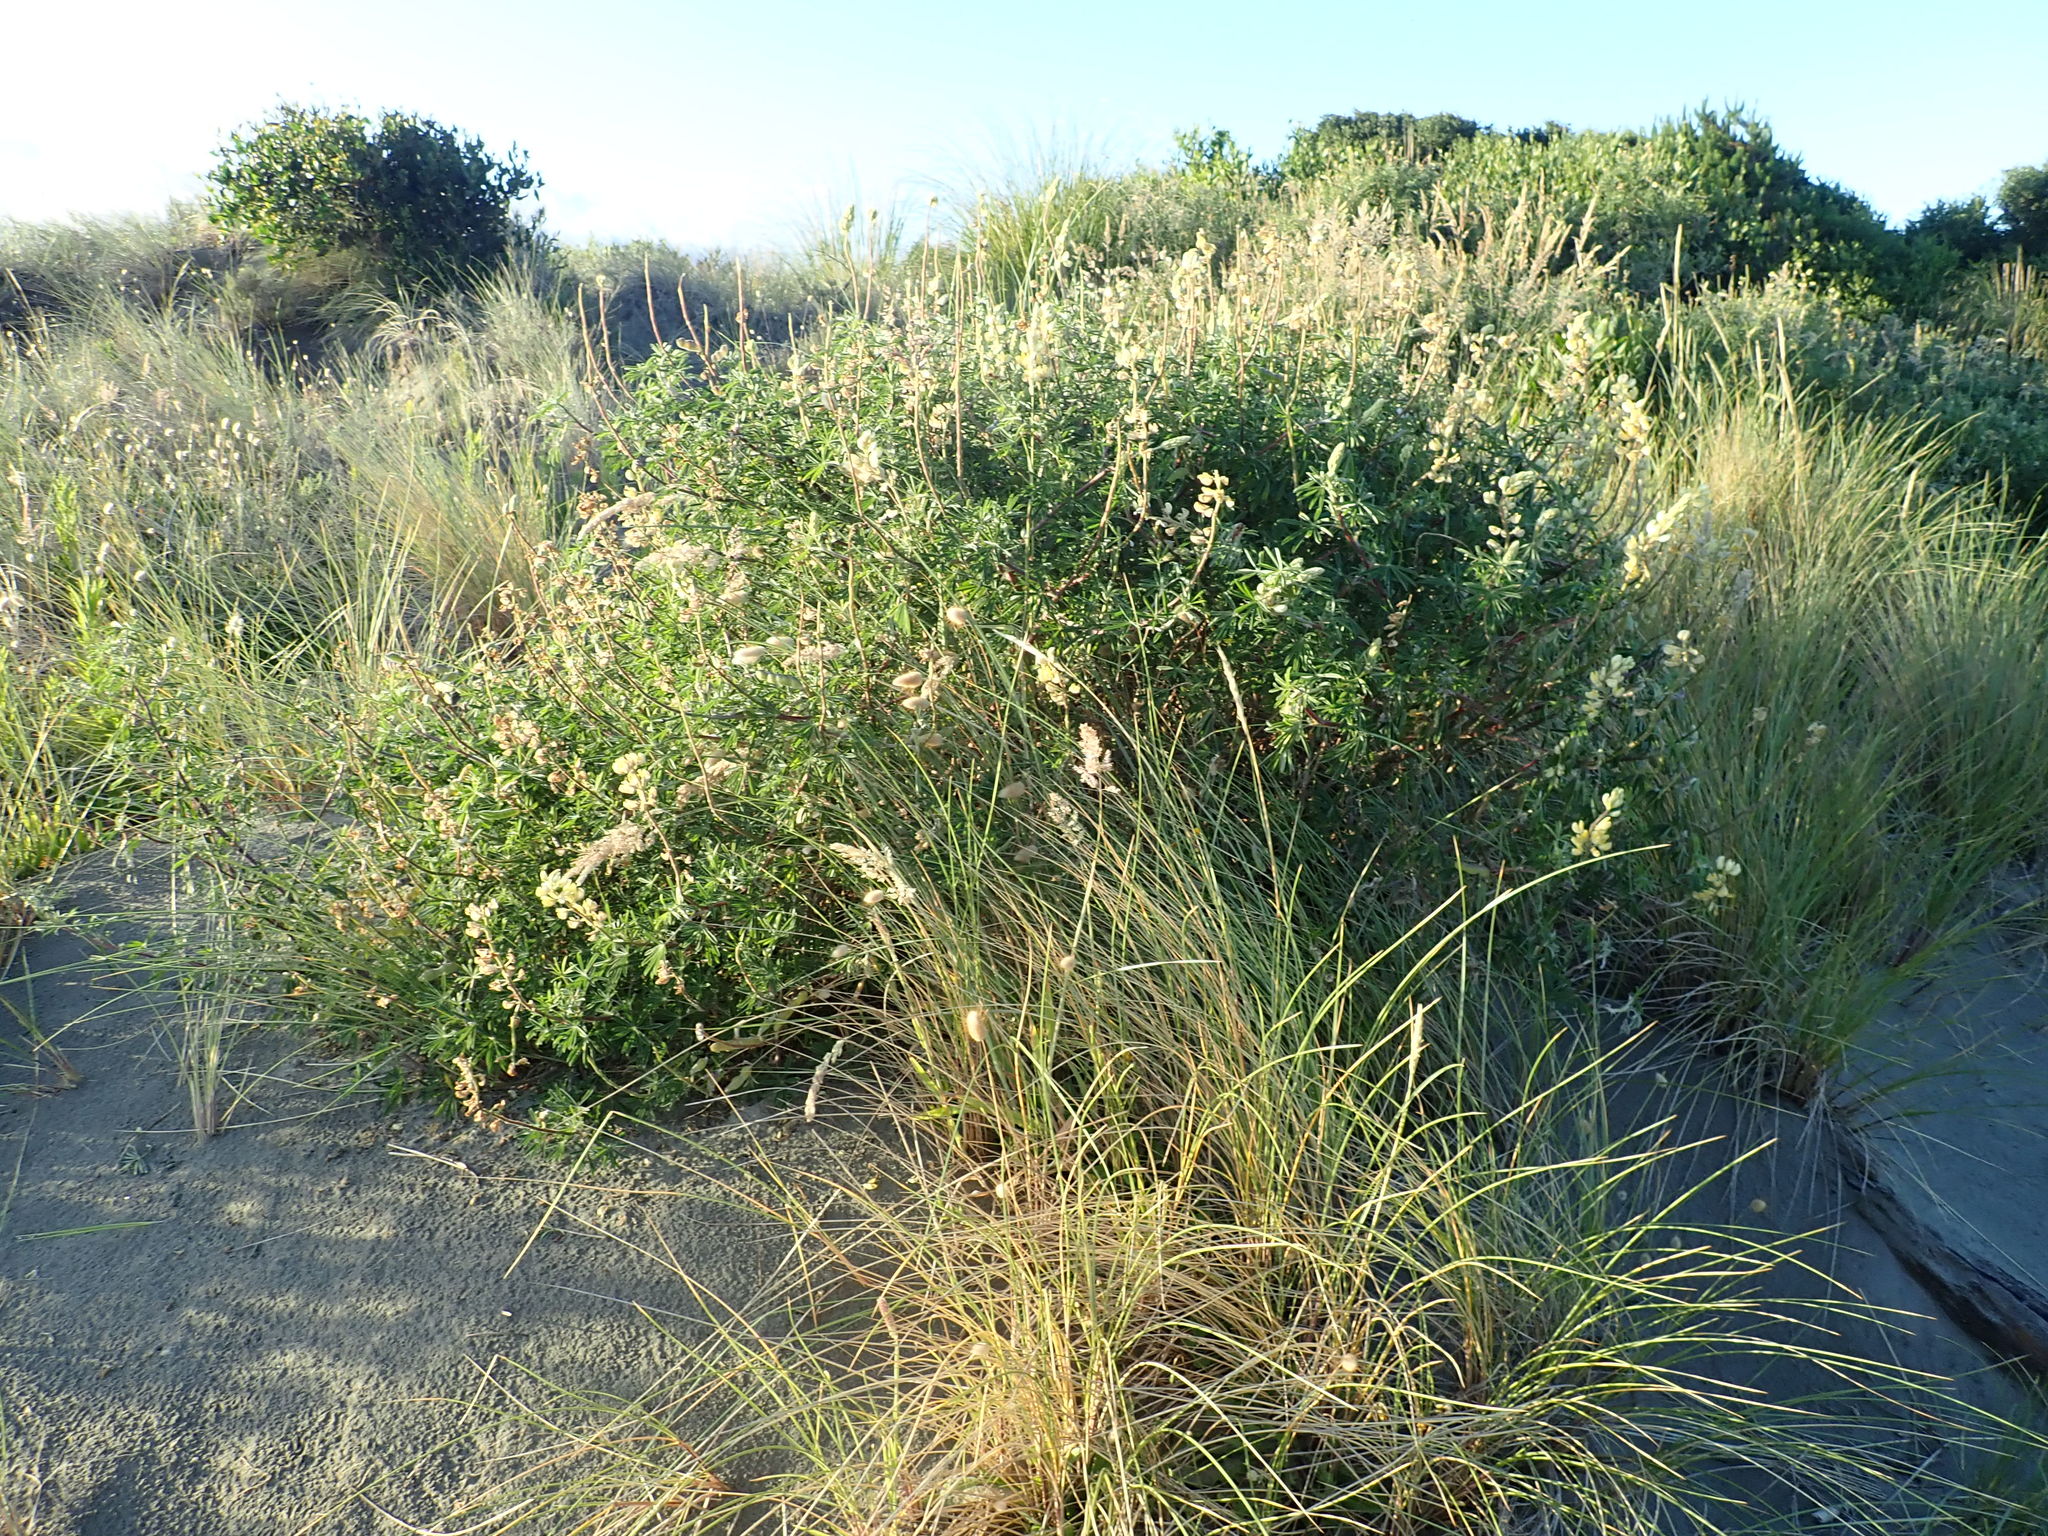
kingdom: Plantae
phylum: Tracheophyta
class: Magnoliopsida
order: Fabales
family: Fabaceae
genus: Lupinus
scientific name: Lupinus arboreus
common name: Yellow bush lupine
